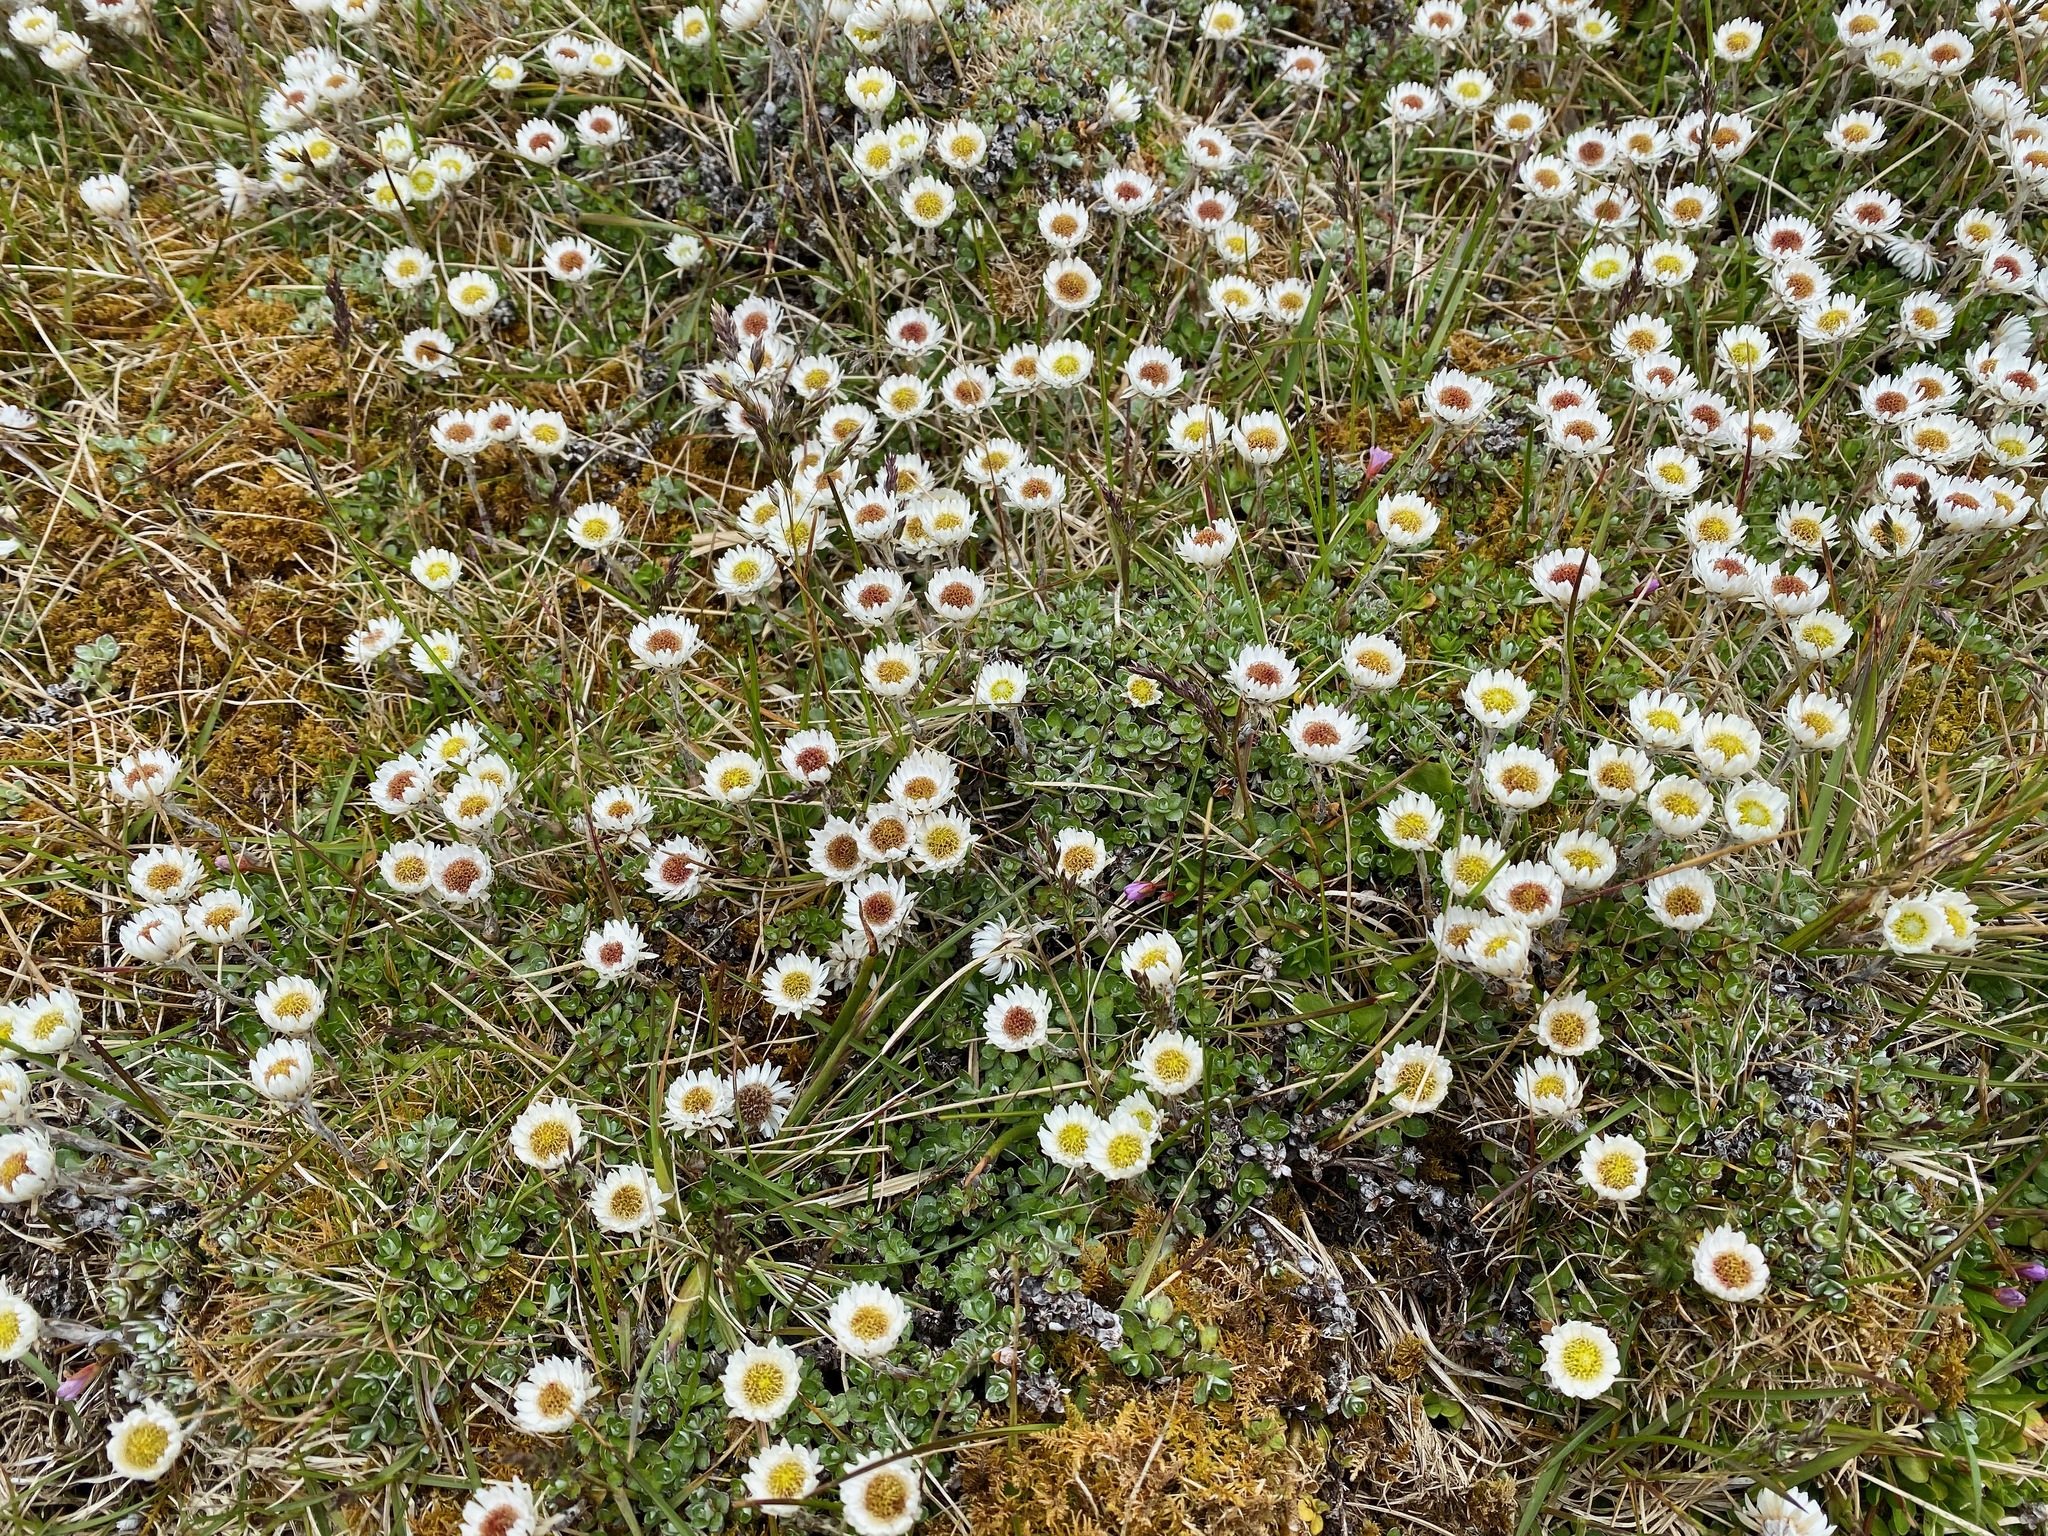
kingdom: Plantae
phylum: Tracheophyta
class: Magnoliopsida
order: Asterales
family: Asteraceae
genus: Anaphalioides
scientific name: Anaphalioides bellidioides
